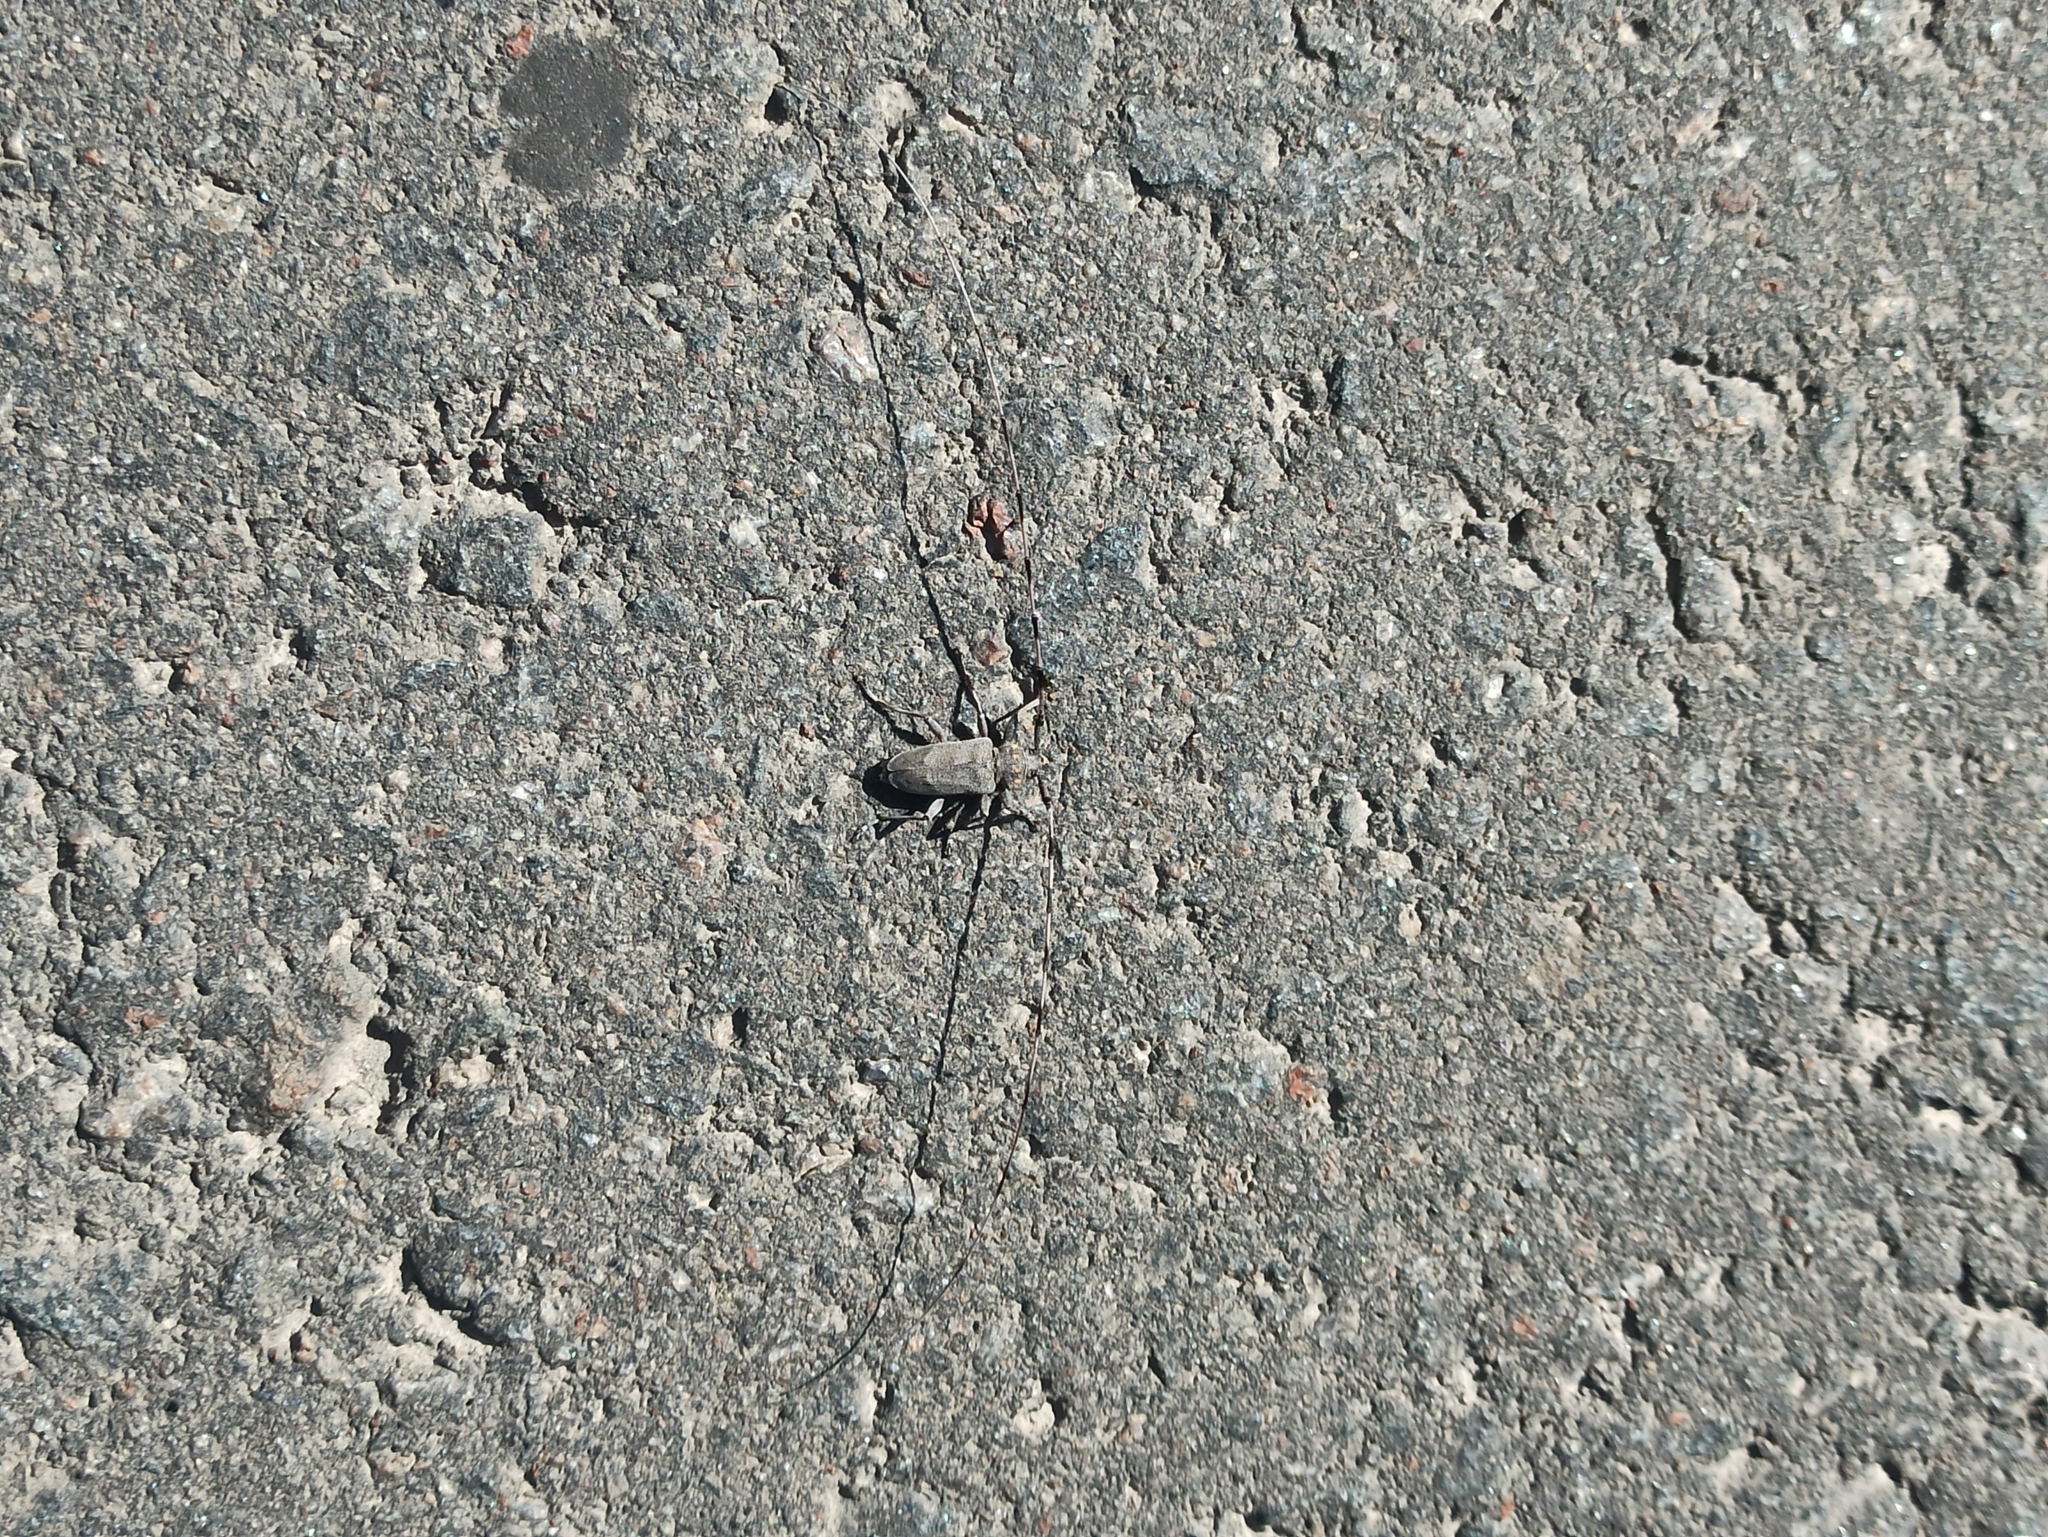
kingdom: Animalia
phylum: Arthropoda
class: Insecta
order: Coleoptera
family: Cerambycidae
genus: Acanthocinus
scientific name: Acanthocinus aedilis
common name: Timberman beetle
